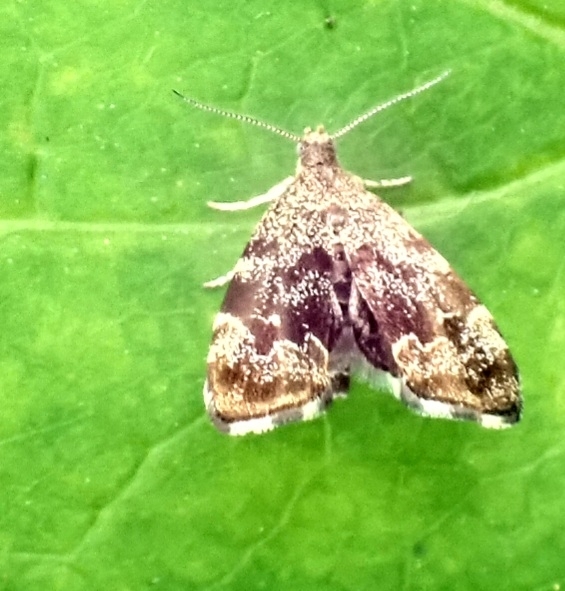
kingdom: Animalia
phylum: Arthropoda
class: Insecta
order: Lepidoptera
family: Choreutidae
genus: Anthophila
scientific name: Anthophila fabriciana
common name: Nettle-tap
